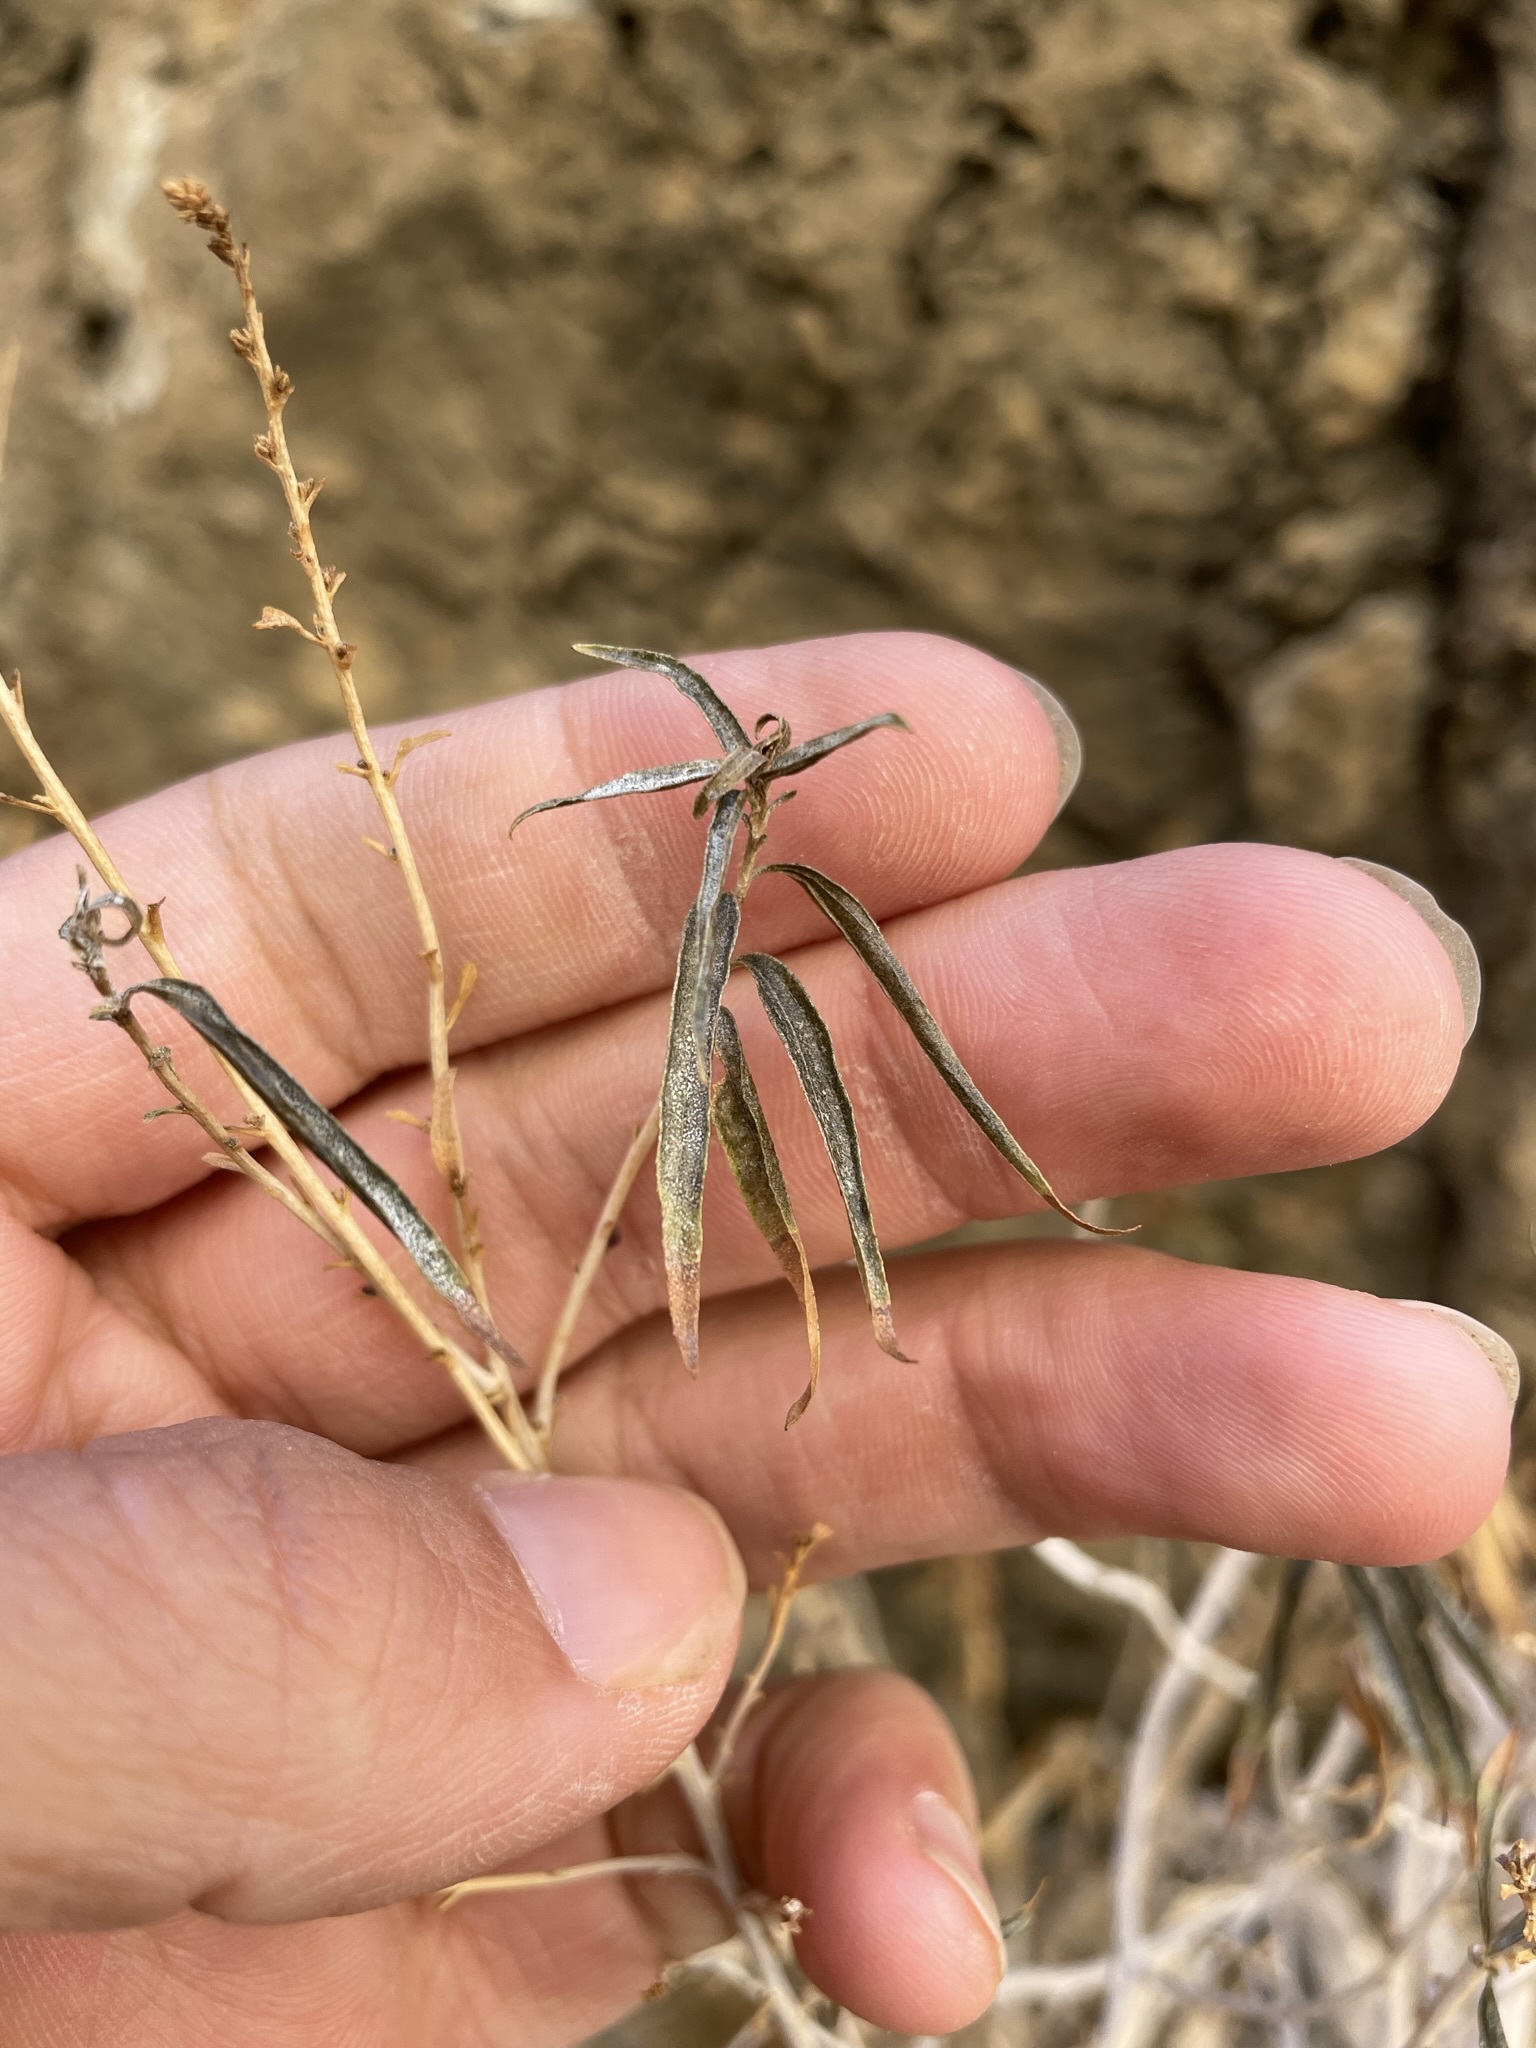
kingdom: Plantae
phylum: Tracheophyta
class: Magnoliopsida
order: Asterales
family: Asteraceae
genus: Brickellia
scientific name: Brickellia longifolia
